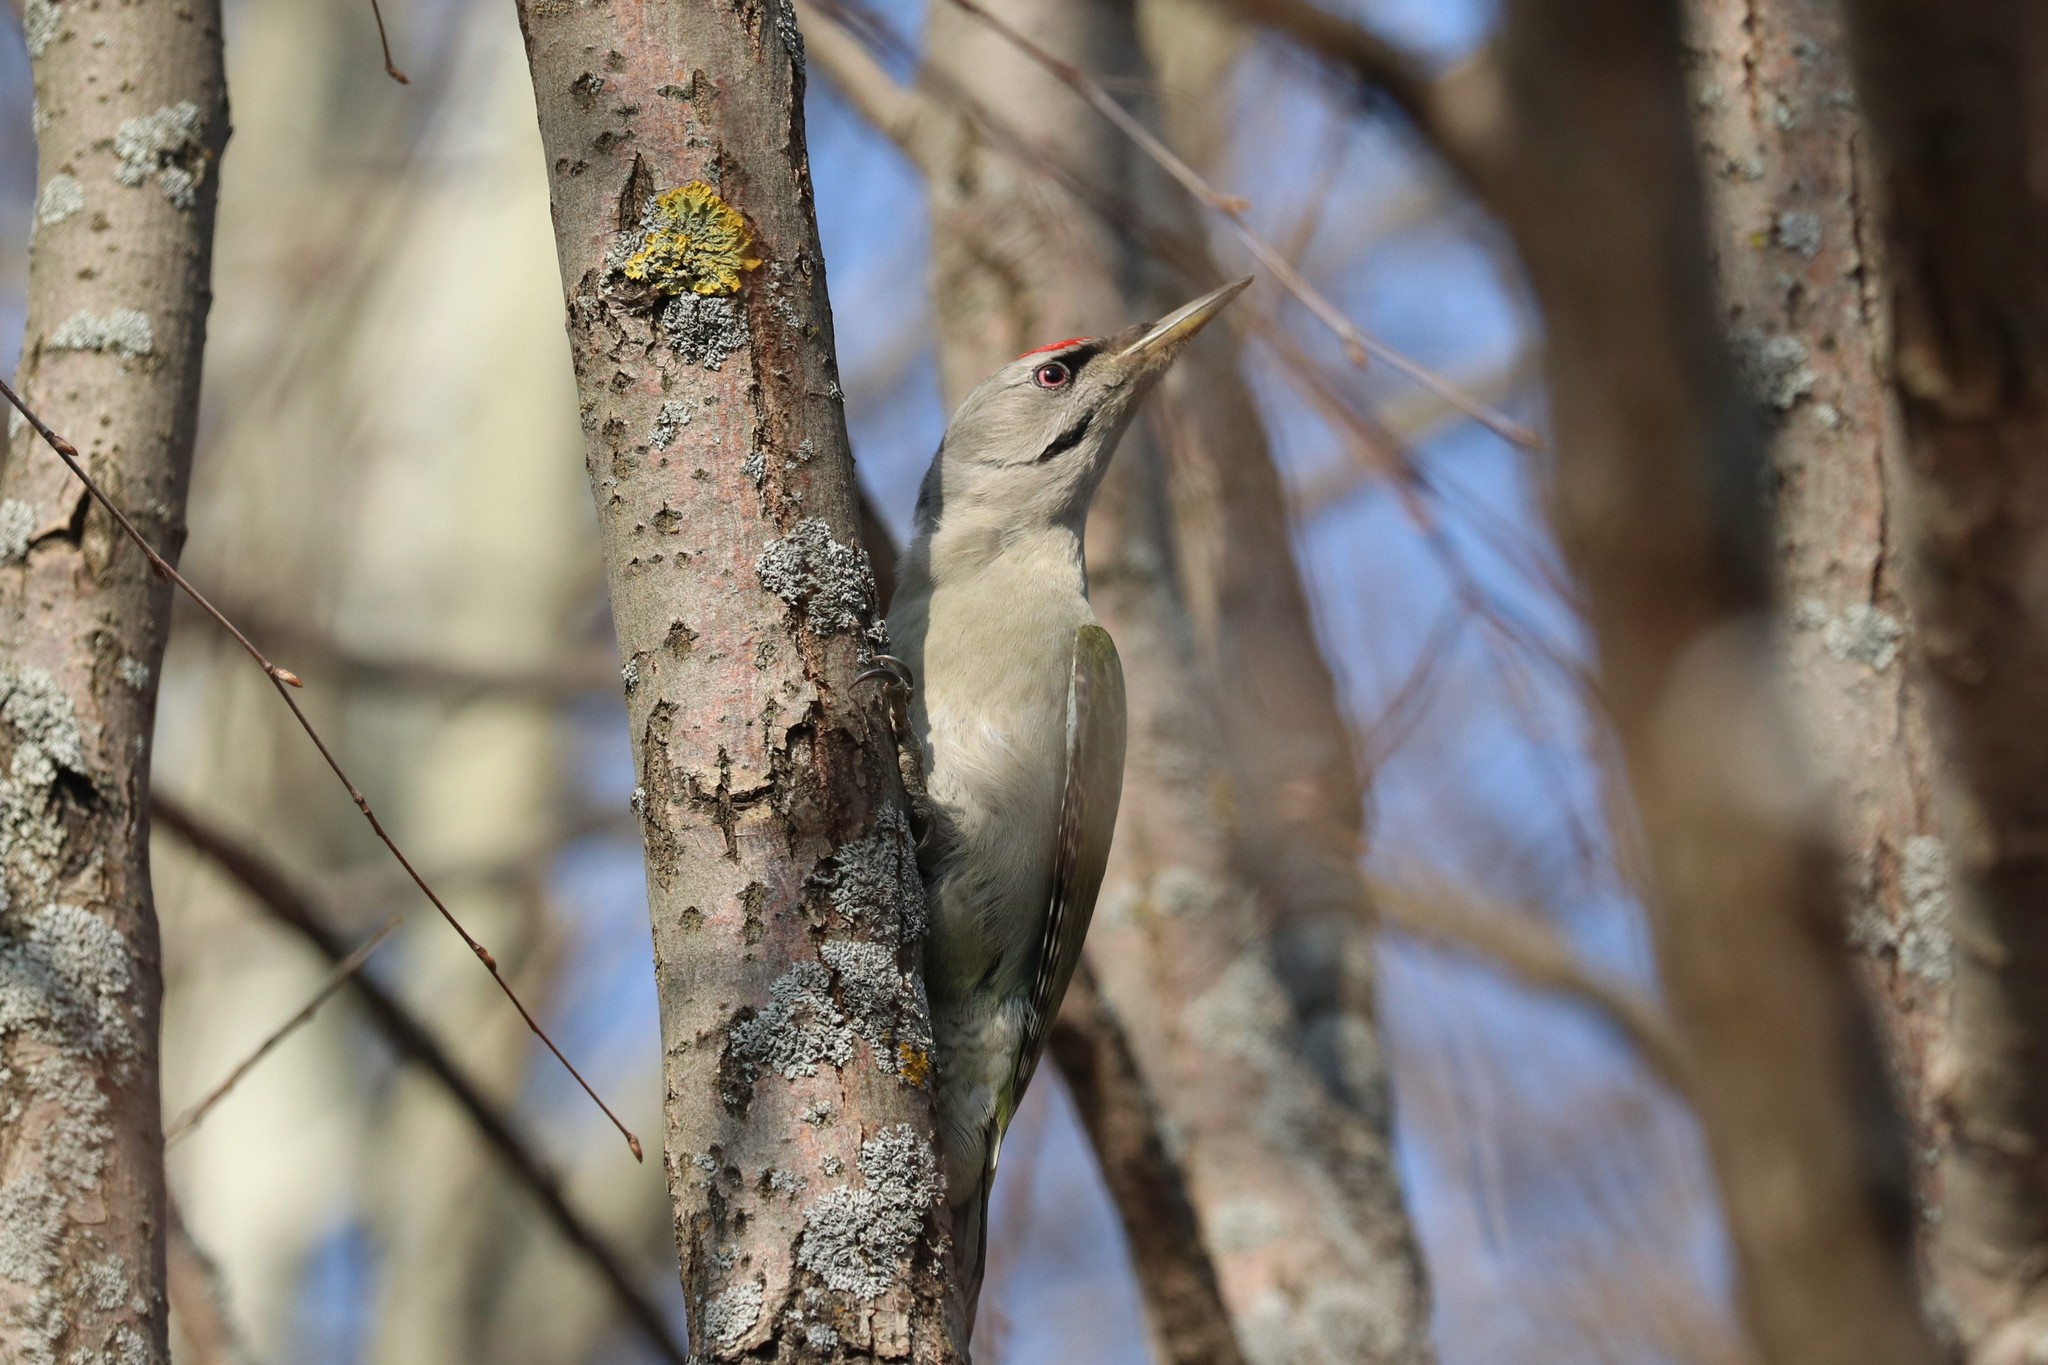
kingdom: Animalia
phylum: Chordata
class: Aves
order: Piciformes
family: Picidae
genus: Picus
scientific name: Picus canus
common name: Grey-headed woodpecker
